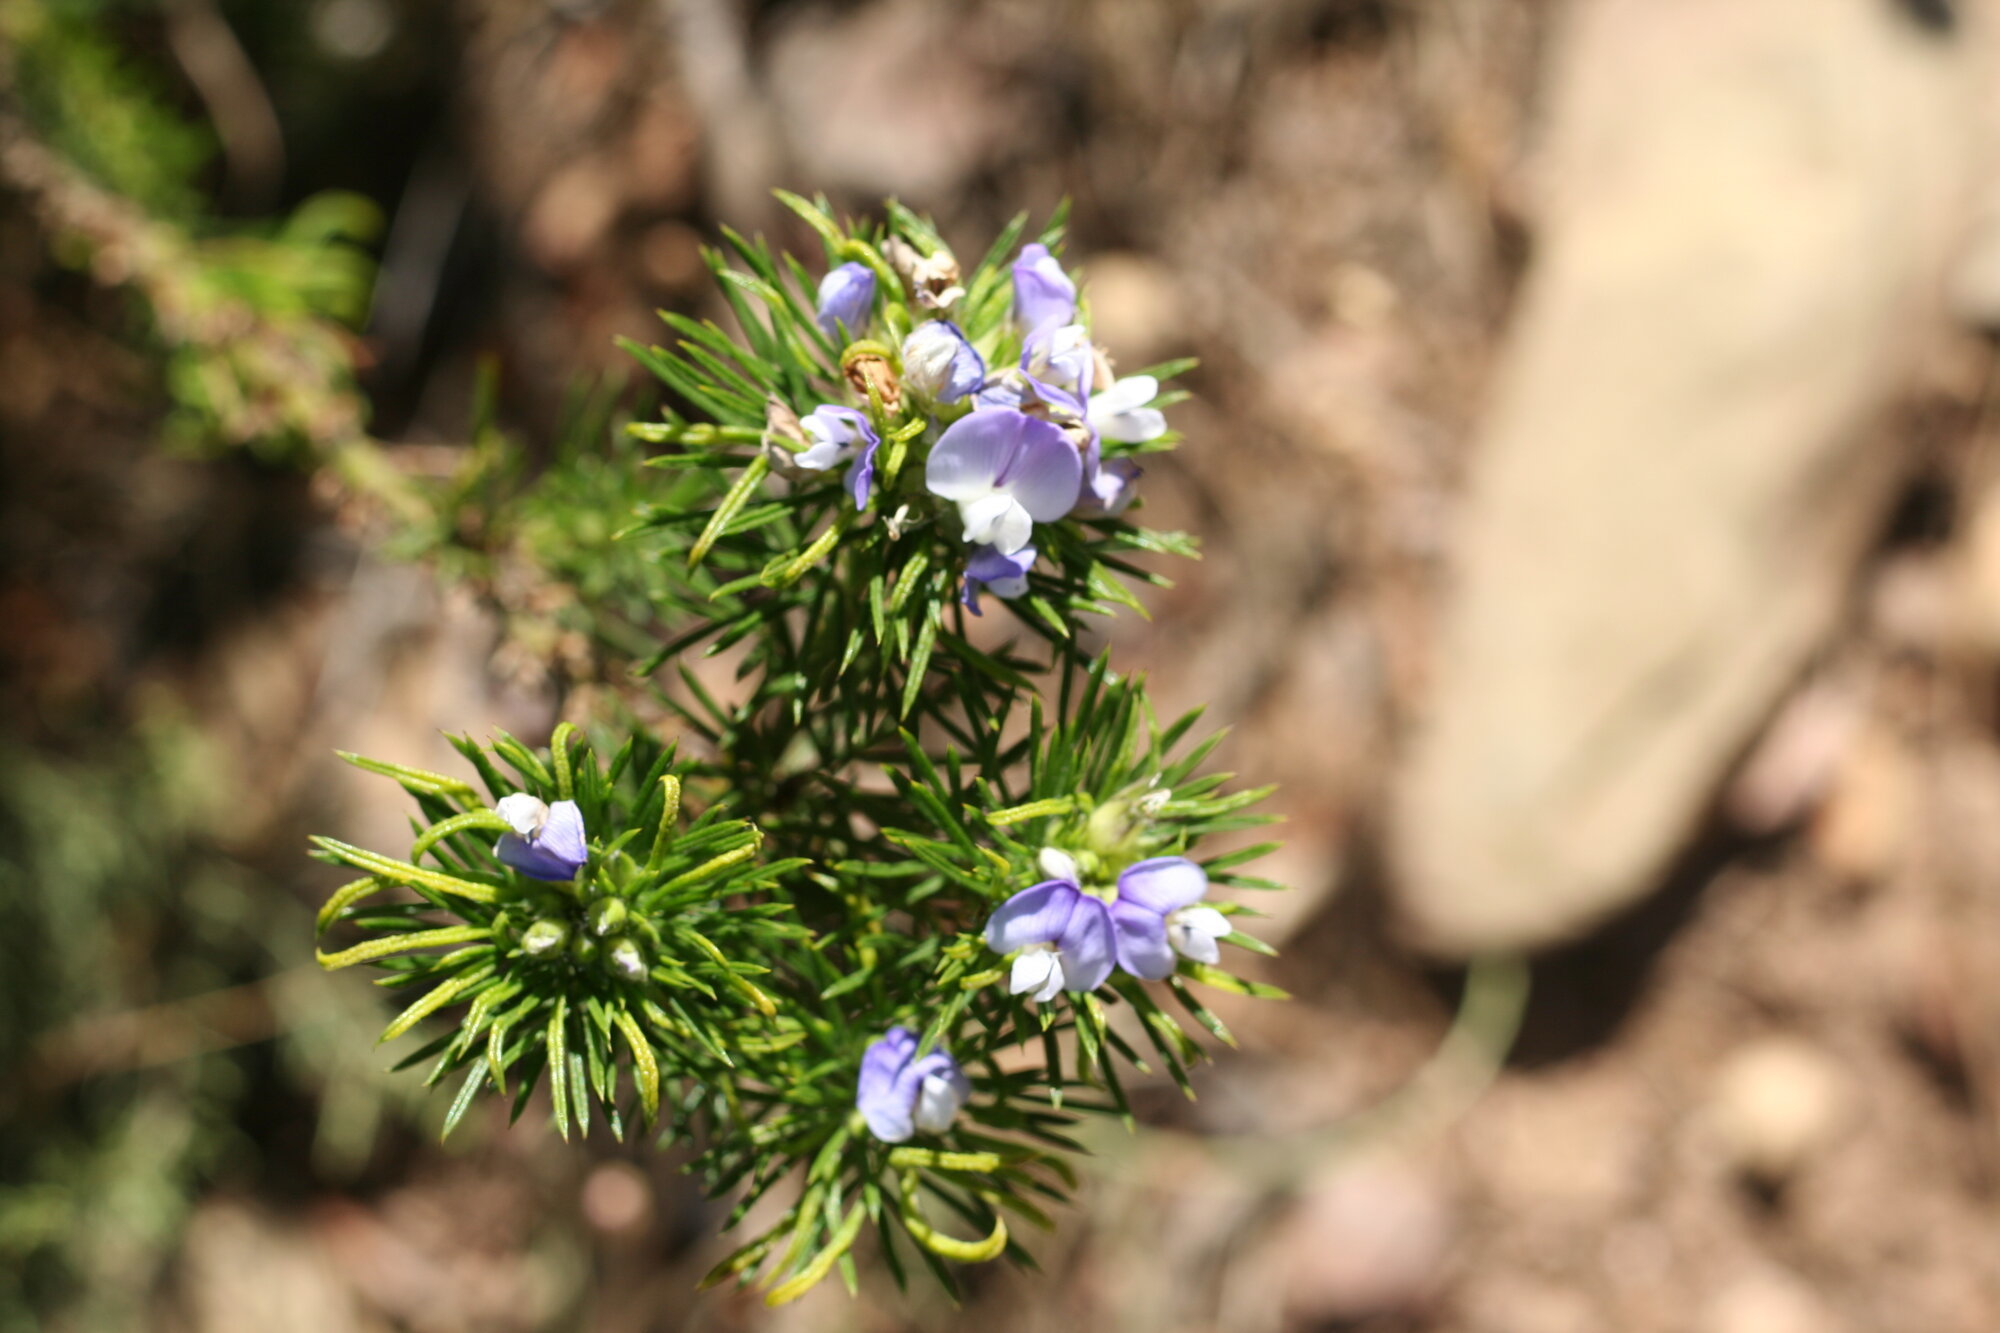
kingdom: Plantae
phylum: Tracheophyta
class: Magnoliopsida
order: Fabales
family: Fabaceae
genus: Psoralea
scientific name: Psoralea pinnata
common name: African scurfpea
